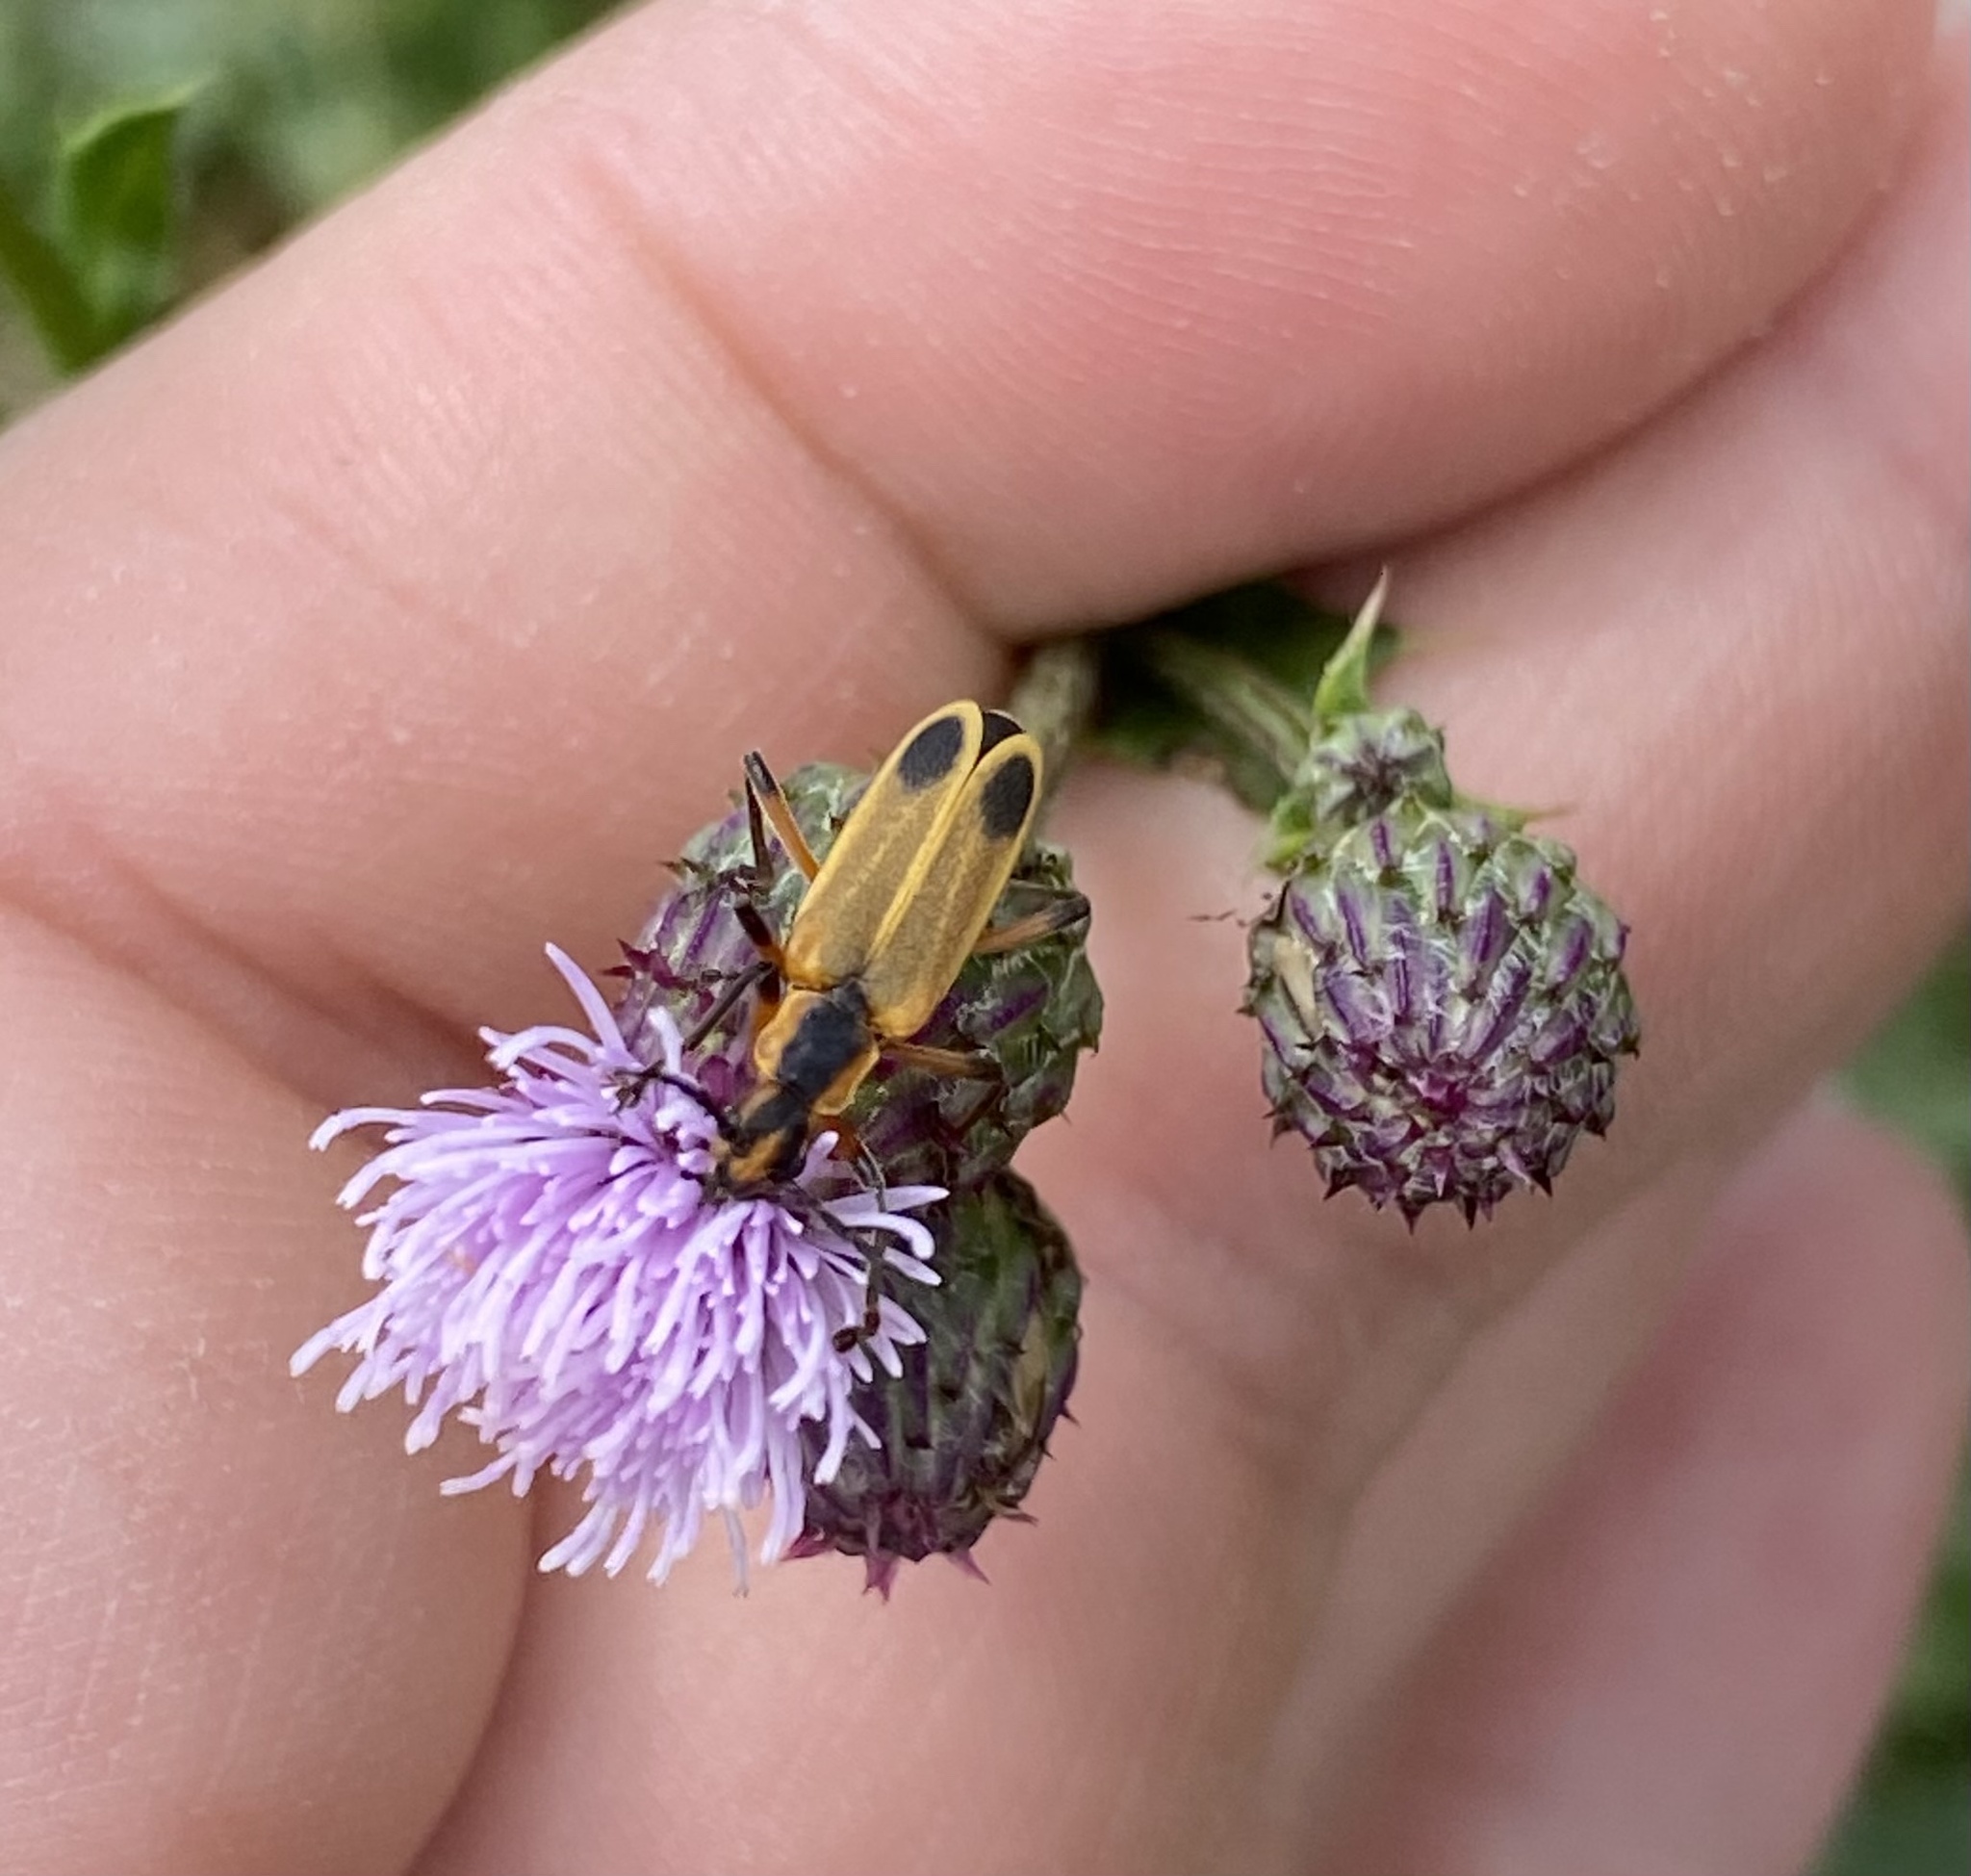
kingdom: Animalia
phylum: Arthropoda
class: Insecta
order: Coleoptera
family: Cantharidae
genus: Chauliognathus
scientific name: Chauliognathus marginatus
